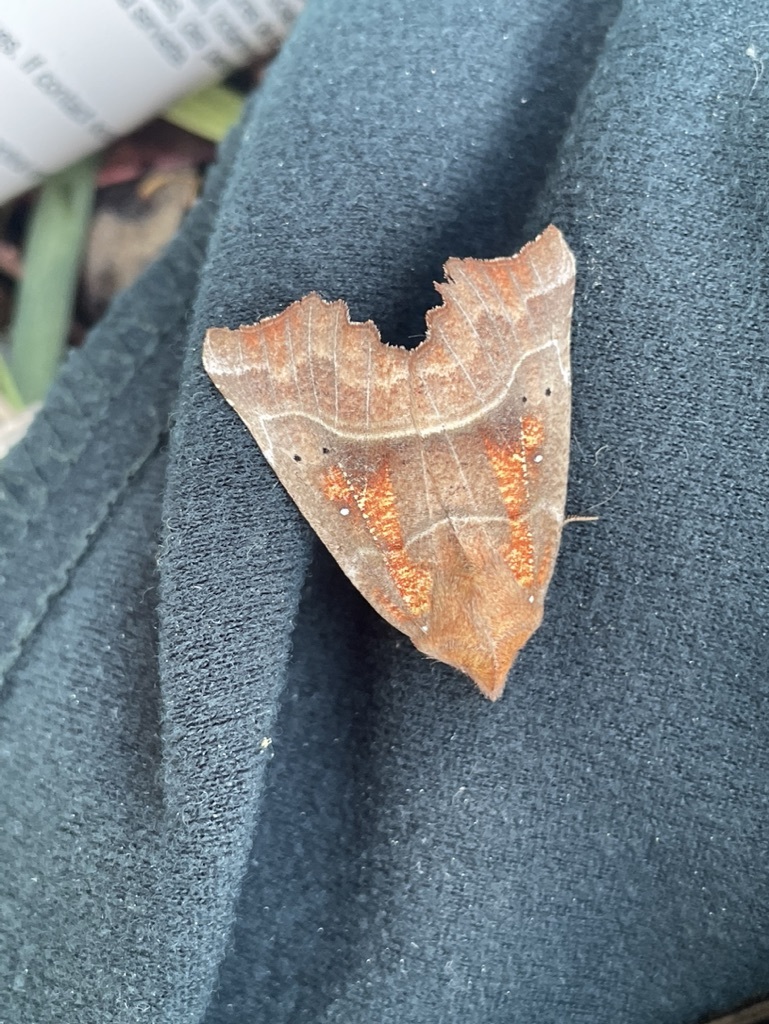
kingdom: Animalia
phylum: Arthropoda
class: Insecta
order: Lepidoptera
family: Erebidae
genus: Scoliopteryx
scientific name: Scoliopteryx libatrix
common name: Herald
